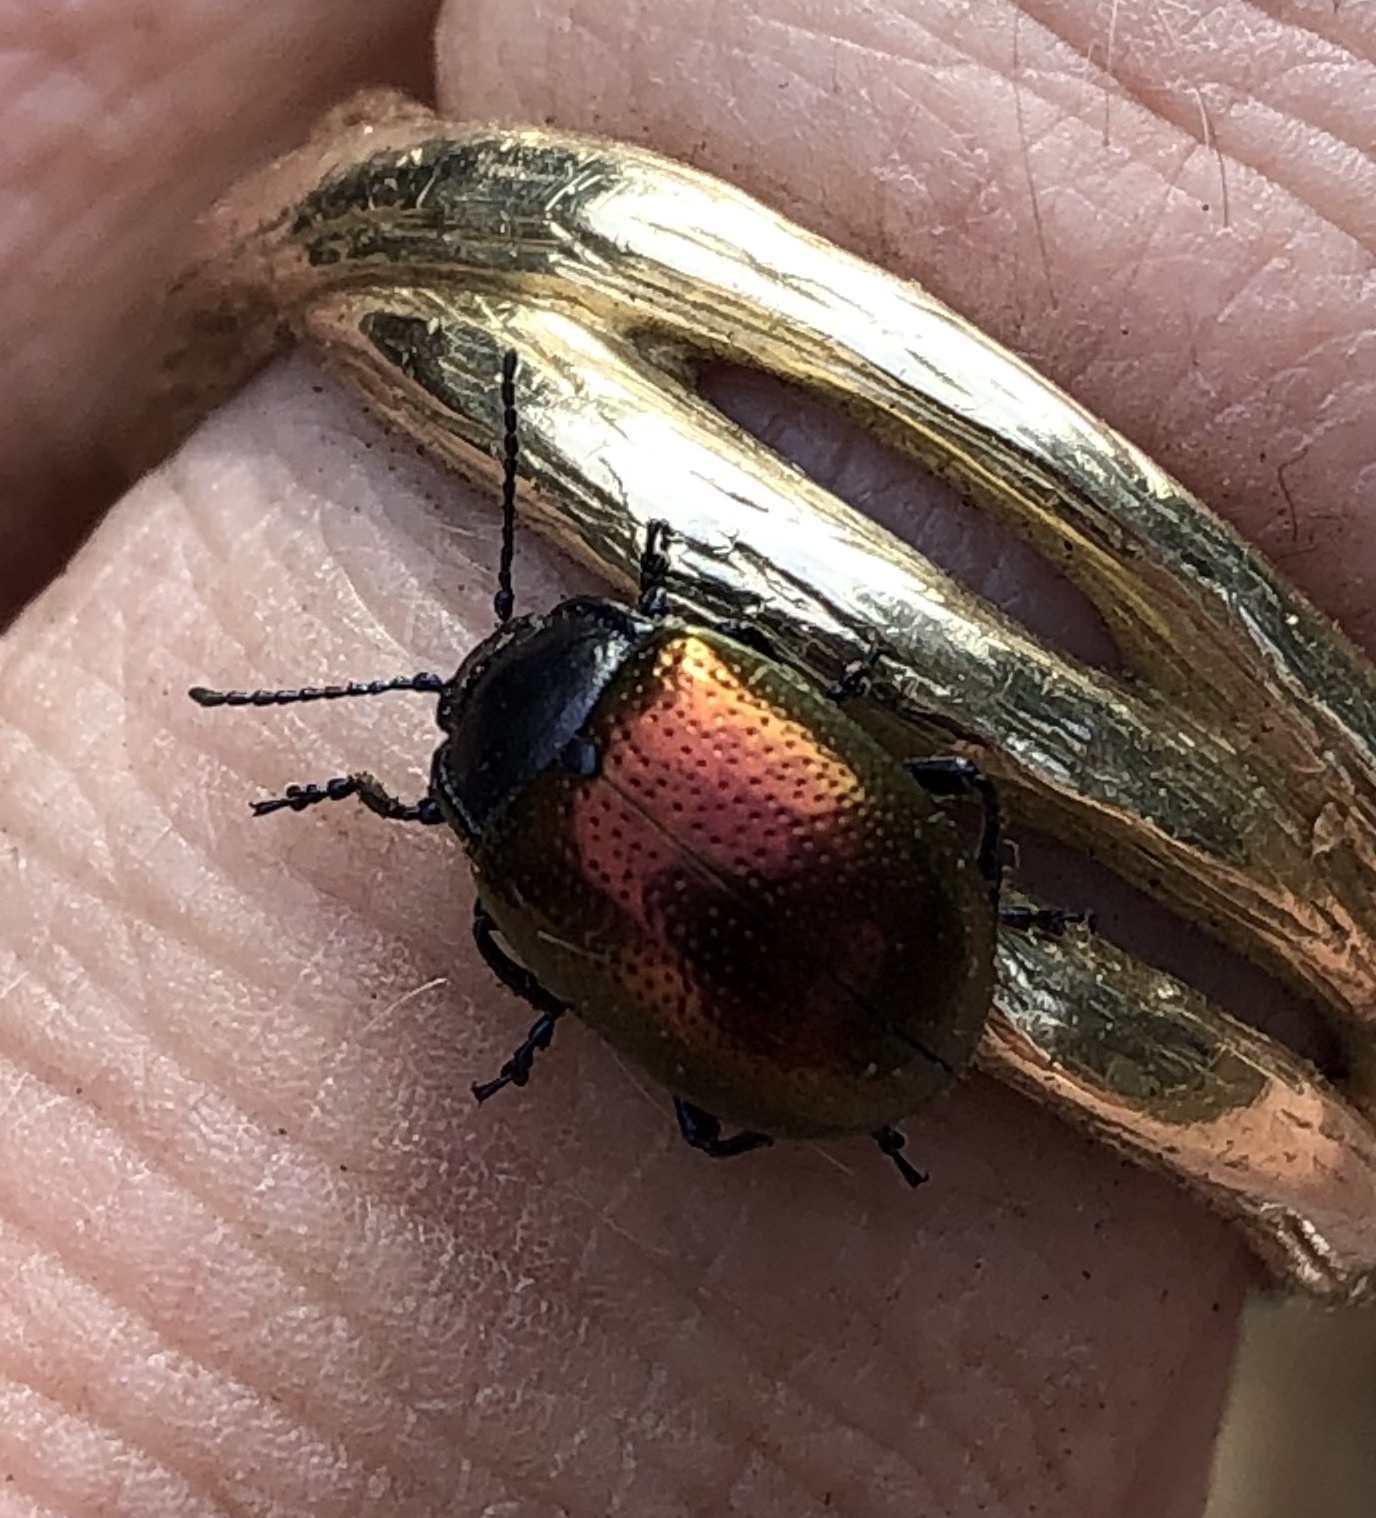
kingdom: Animalia
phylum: Arthropoda
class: Insecta
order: Coleoptera
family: Chrysomelidae
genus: Chrysolina
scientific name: Chrysolina auripennis
